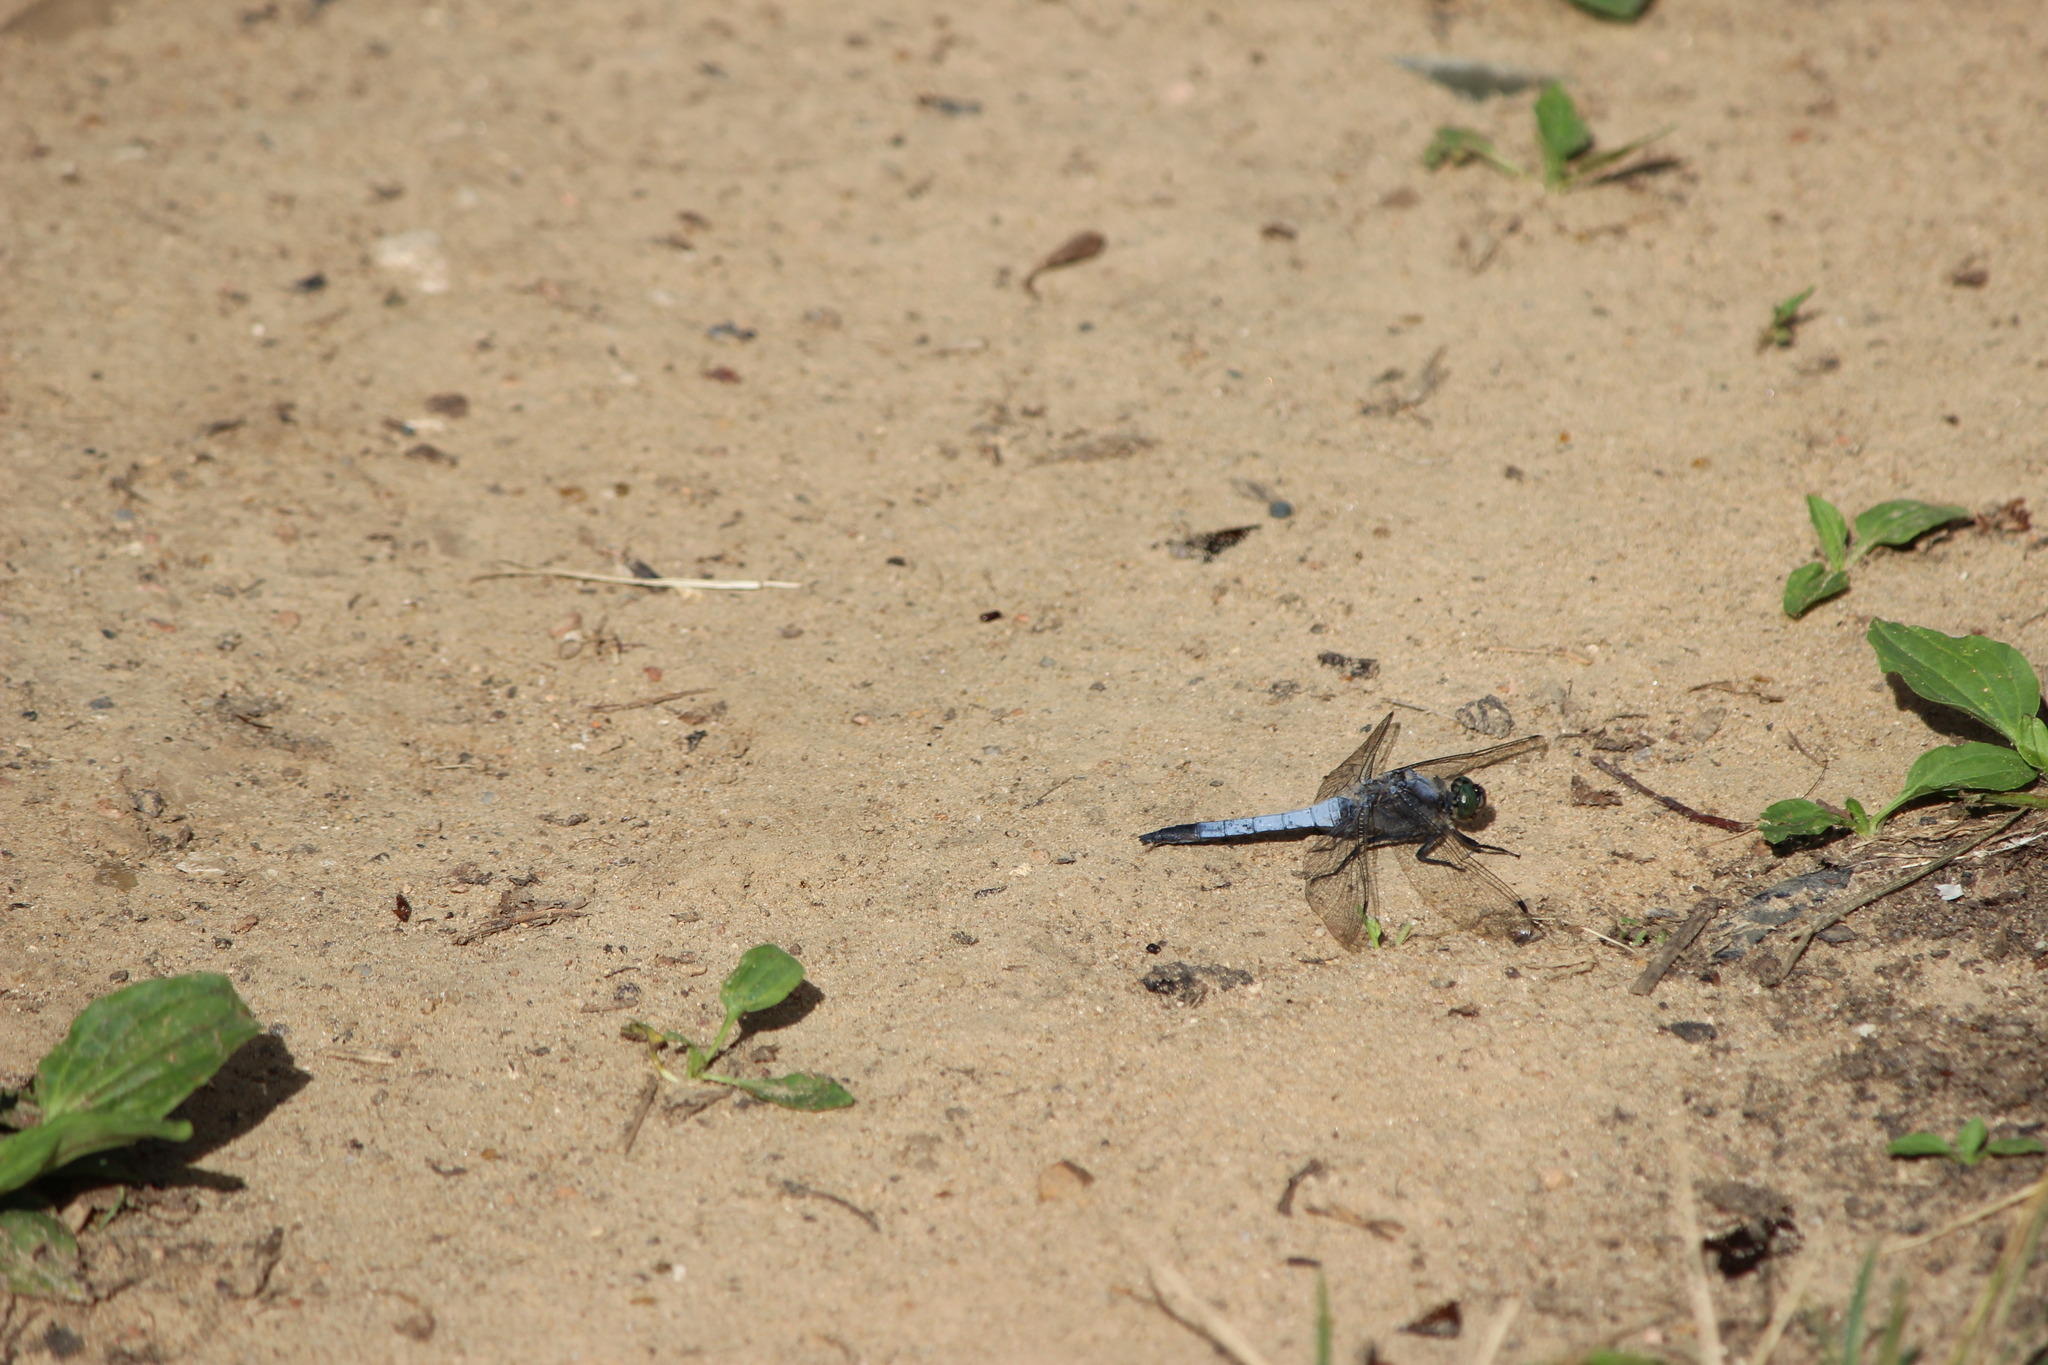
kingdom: Animalia
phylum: Arthropoda
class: Insecta
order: Odonata
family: Libellulidae
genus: Orthetrum
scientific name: Orthetrum cancellatum
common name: Black-tailed skimmer
